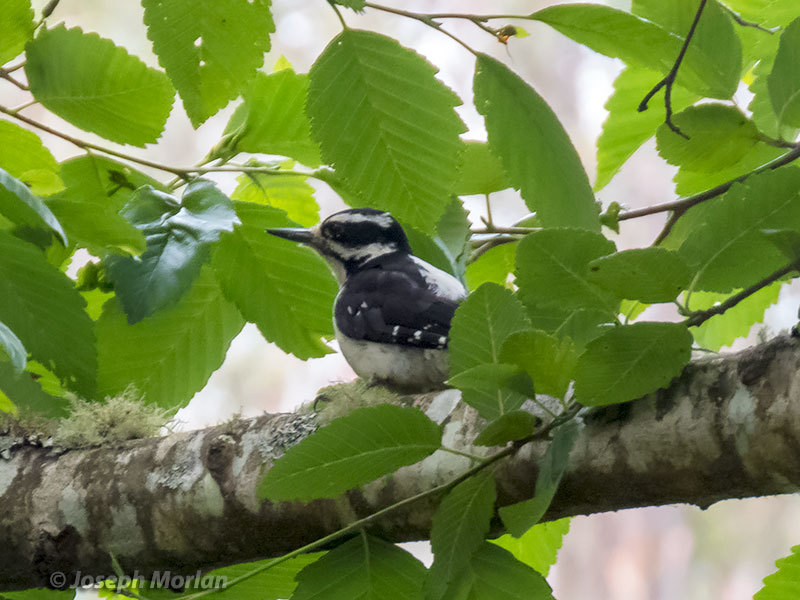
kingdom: Animalia
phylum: Chordata
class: Aves
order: Piciformes
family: Picidae
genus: Leuconotopicus
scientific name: Leuconotopicus villosus
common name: Hairy woodpecker
